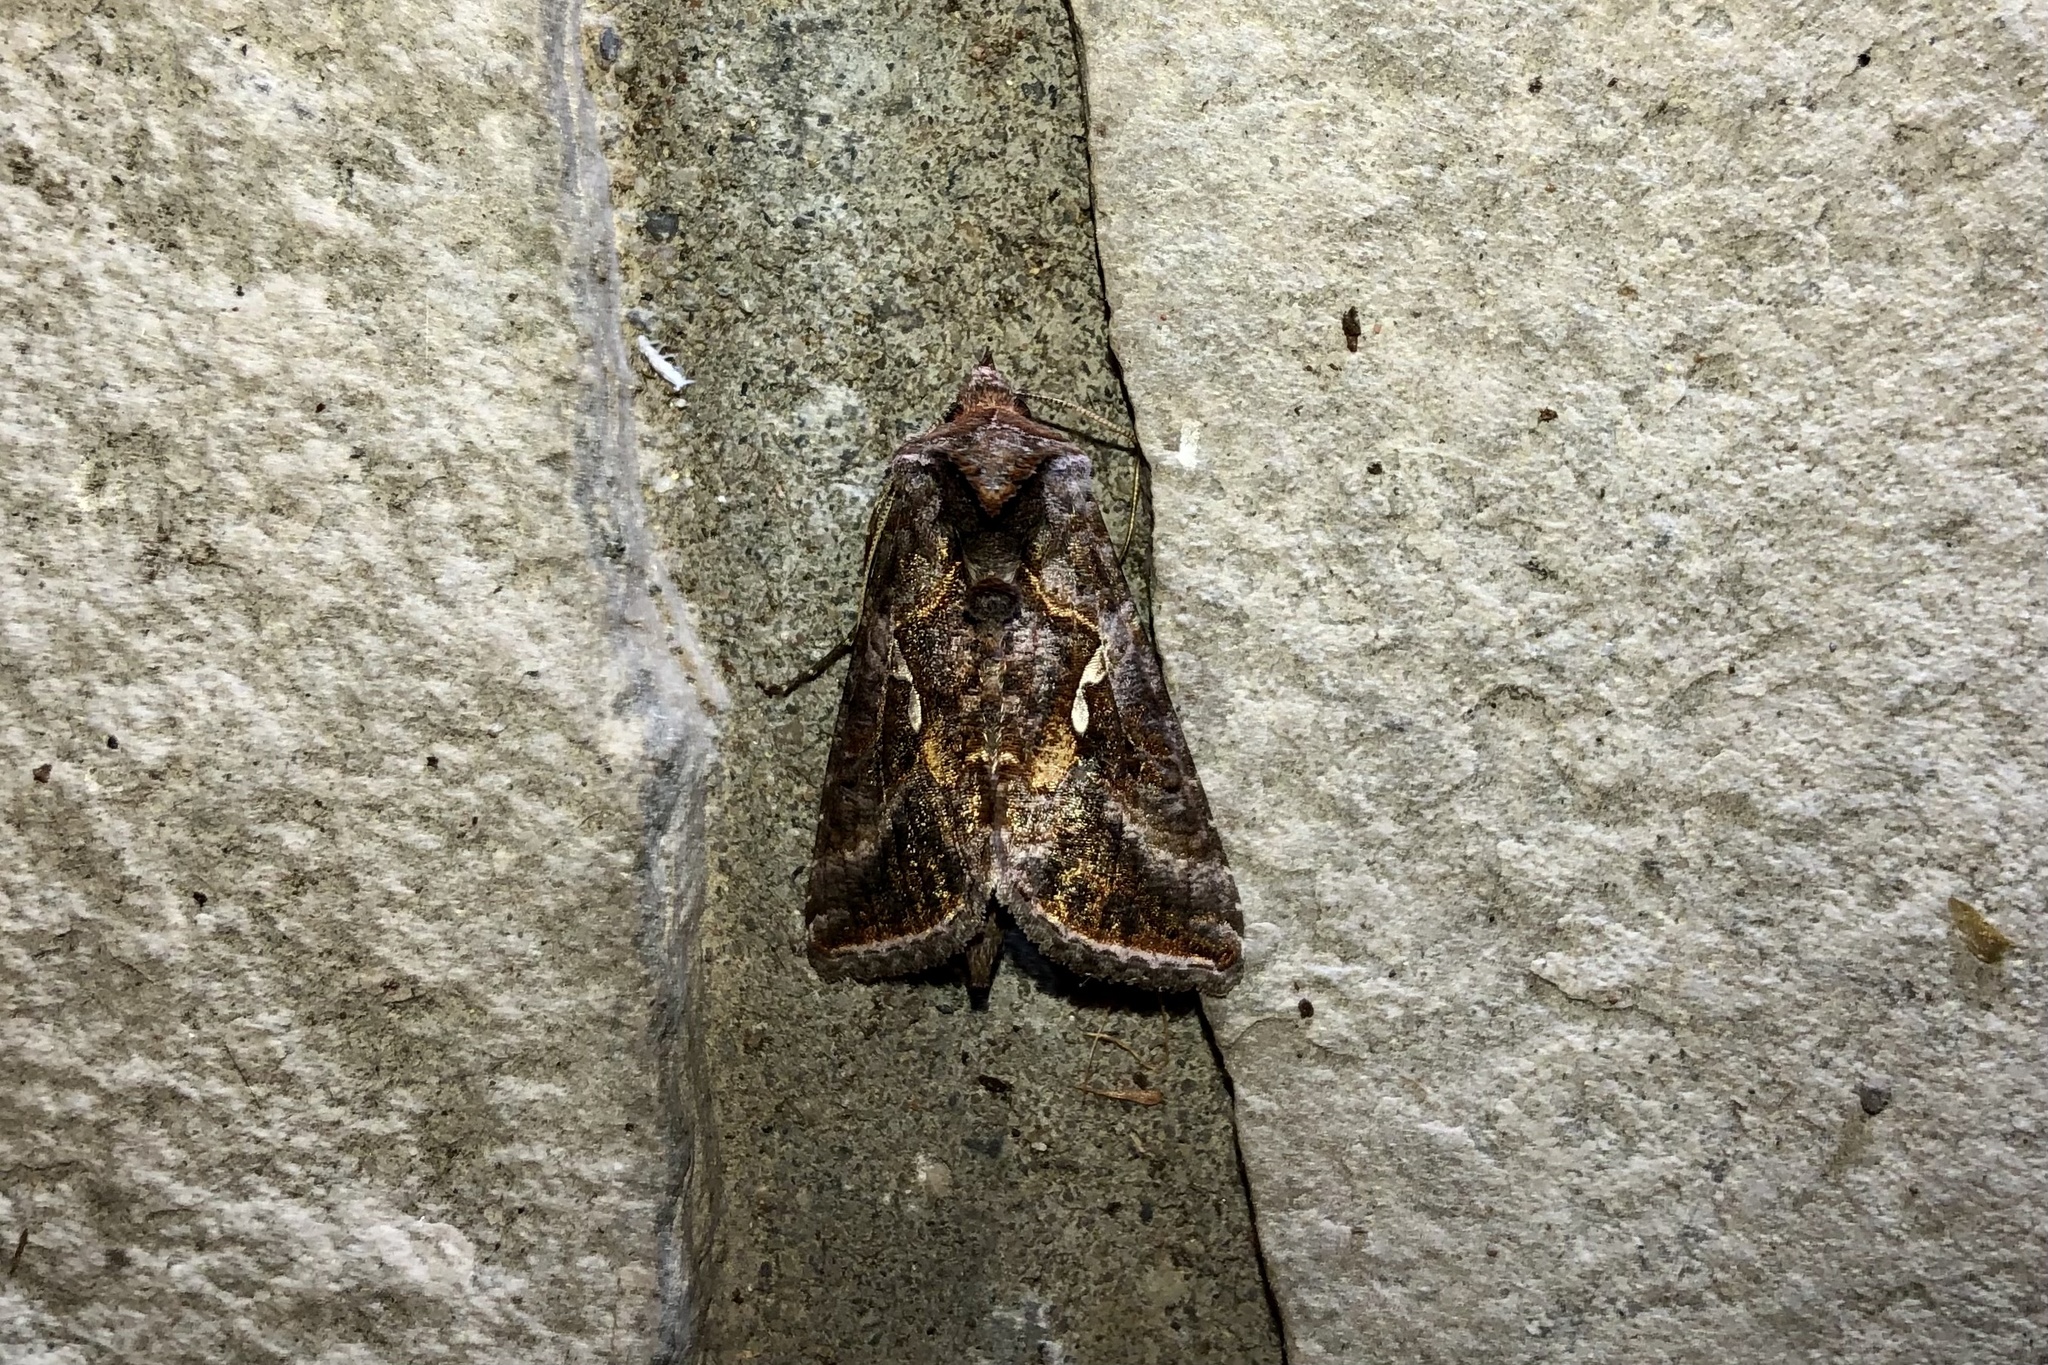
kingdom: Animalia
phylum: Arthropoda
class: Insecta
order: Lepidoptera
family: Noctuidae
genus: Autographa
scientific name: Autographa precationis
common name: Common looper moth
